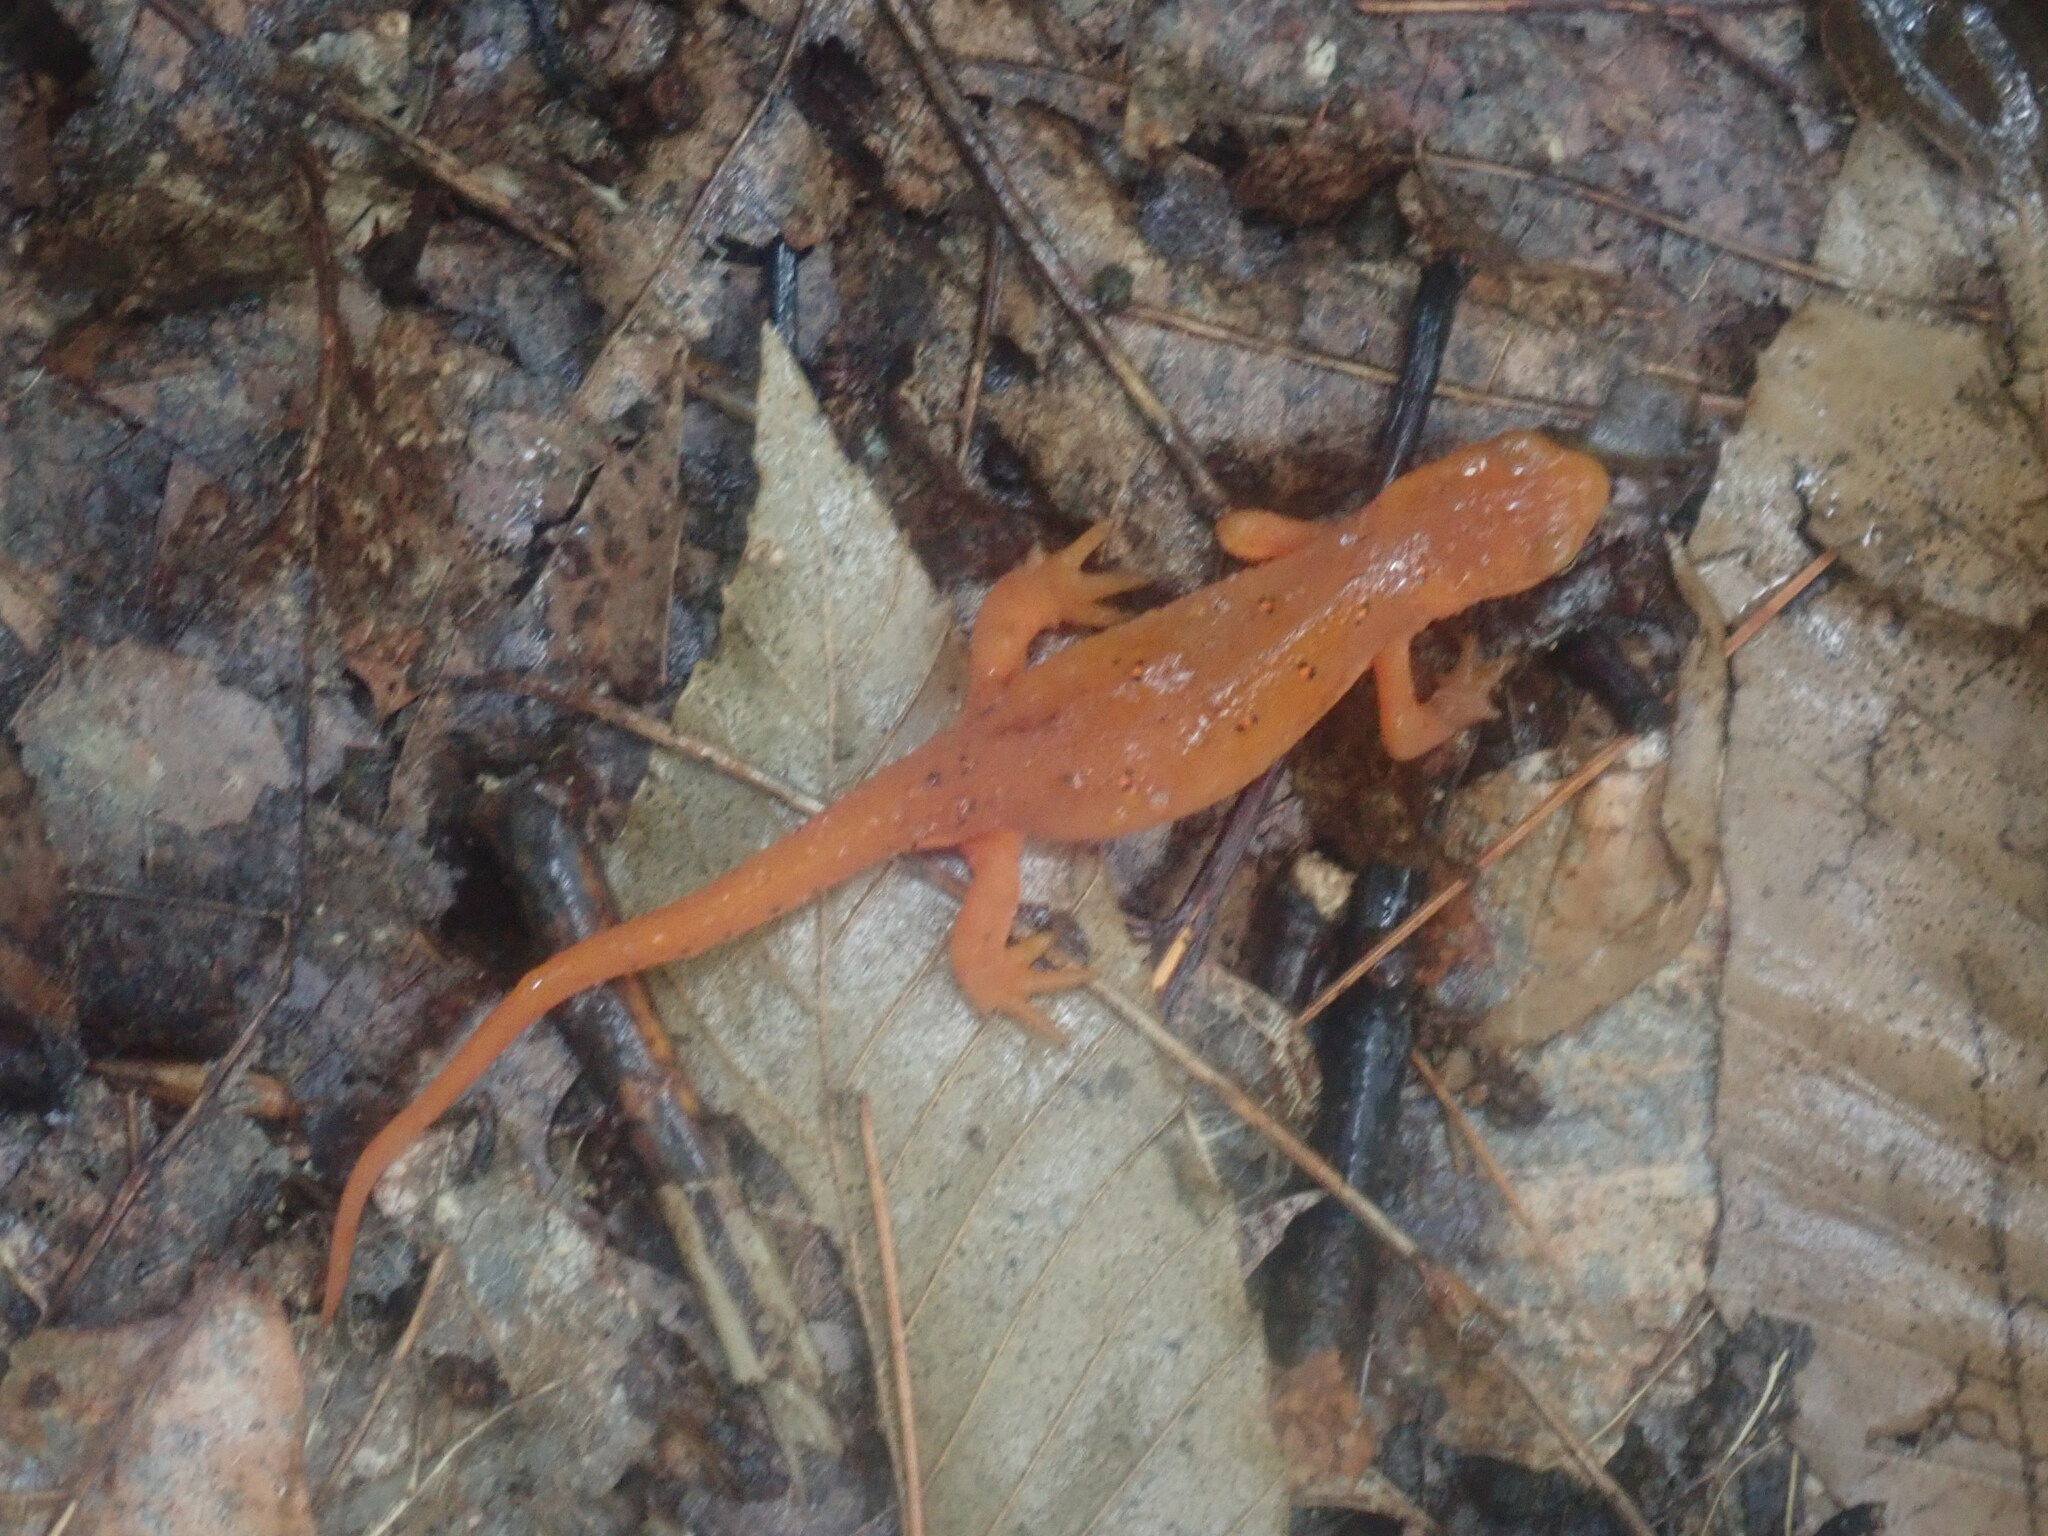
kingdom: Animalia
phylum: Chordata
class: Amphibia
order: Caudata
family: Salamandridae
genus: Notophthalmus
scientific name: Notophthalmus viridescens
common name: Eastern newt
